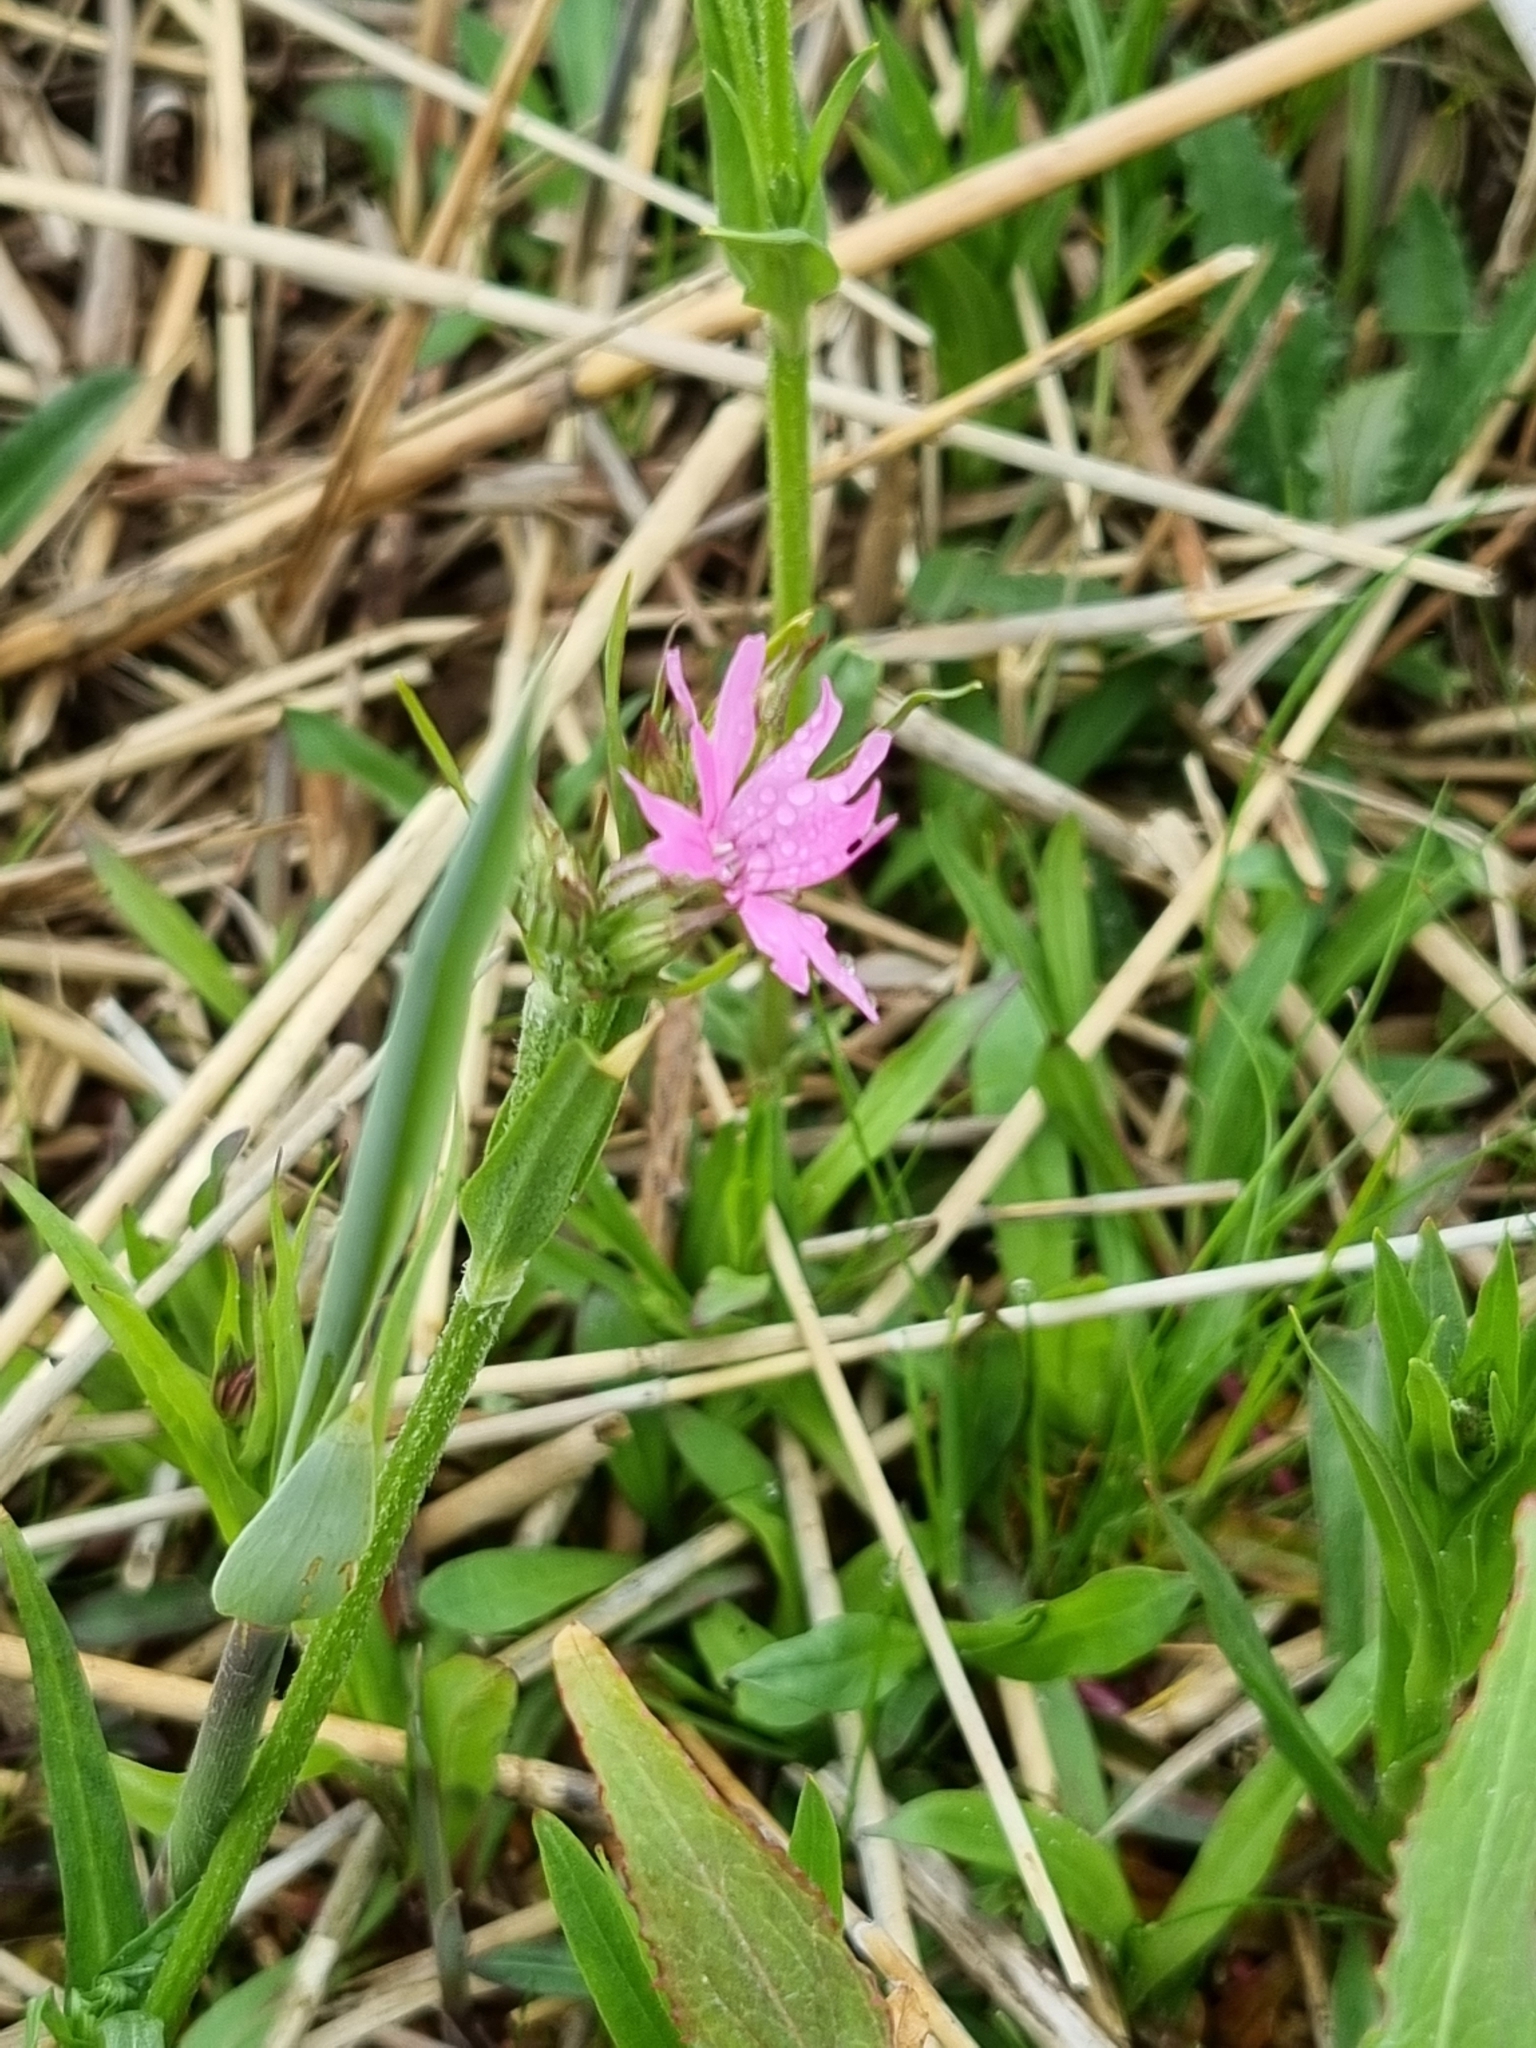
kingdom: Plantae
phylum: Tracheophyta
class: Magnoliopsida
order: Caryophyllales
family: Caryophyllaceae
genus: Silene
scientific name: Silene flos-cuculi
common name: Ragged-robin
